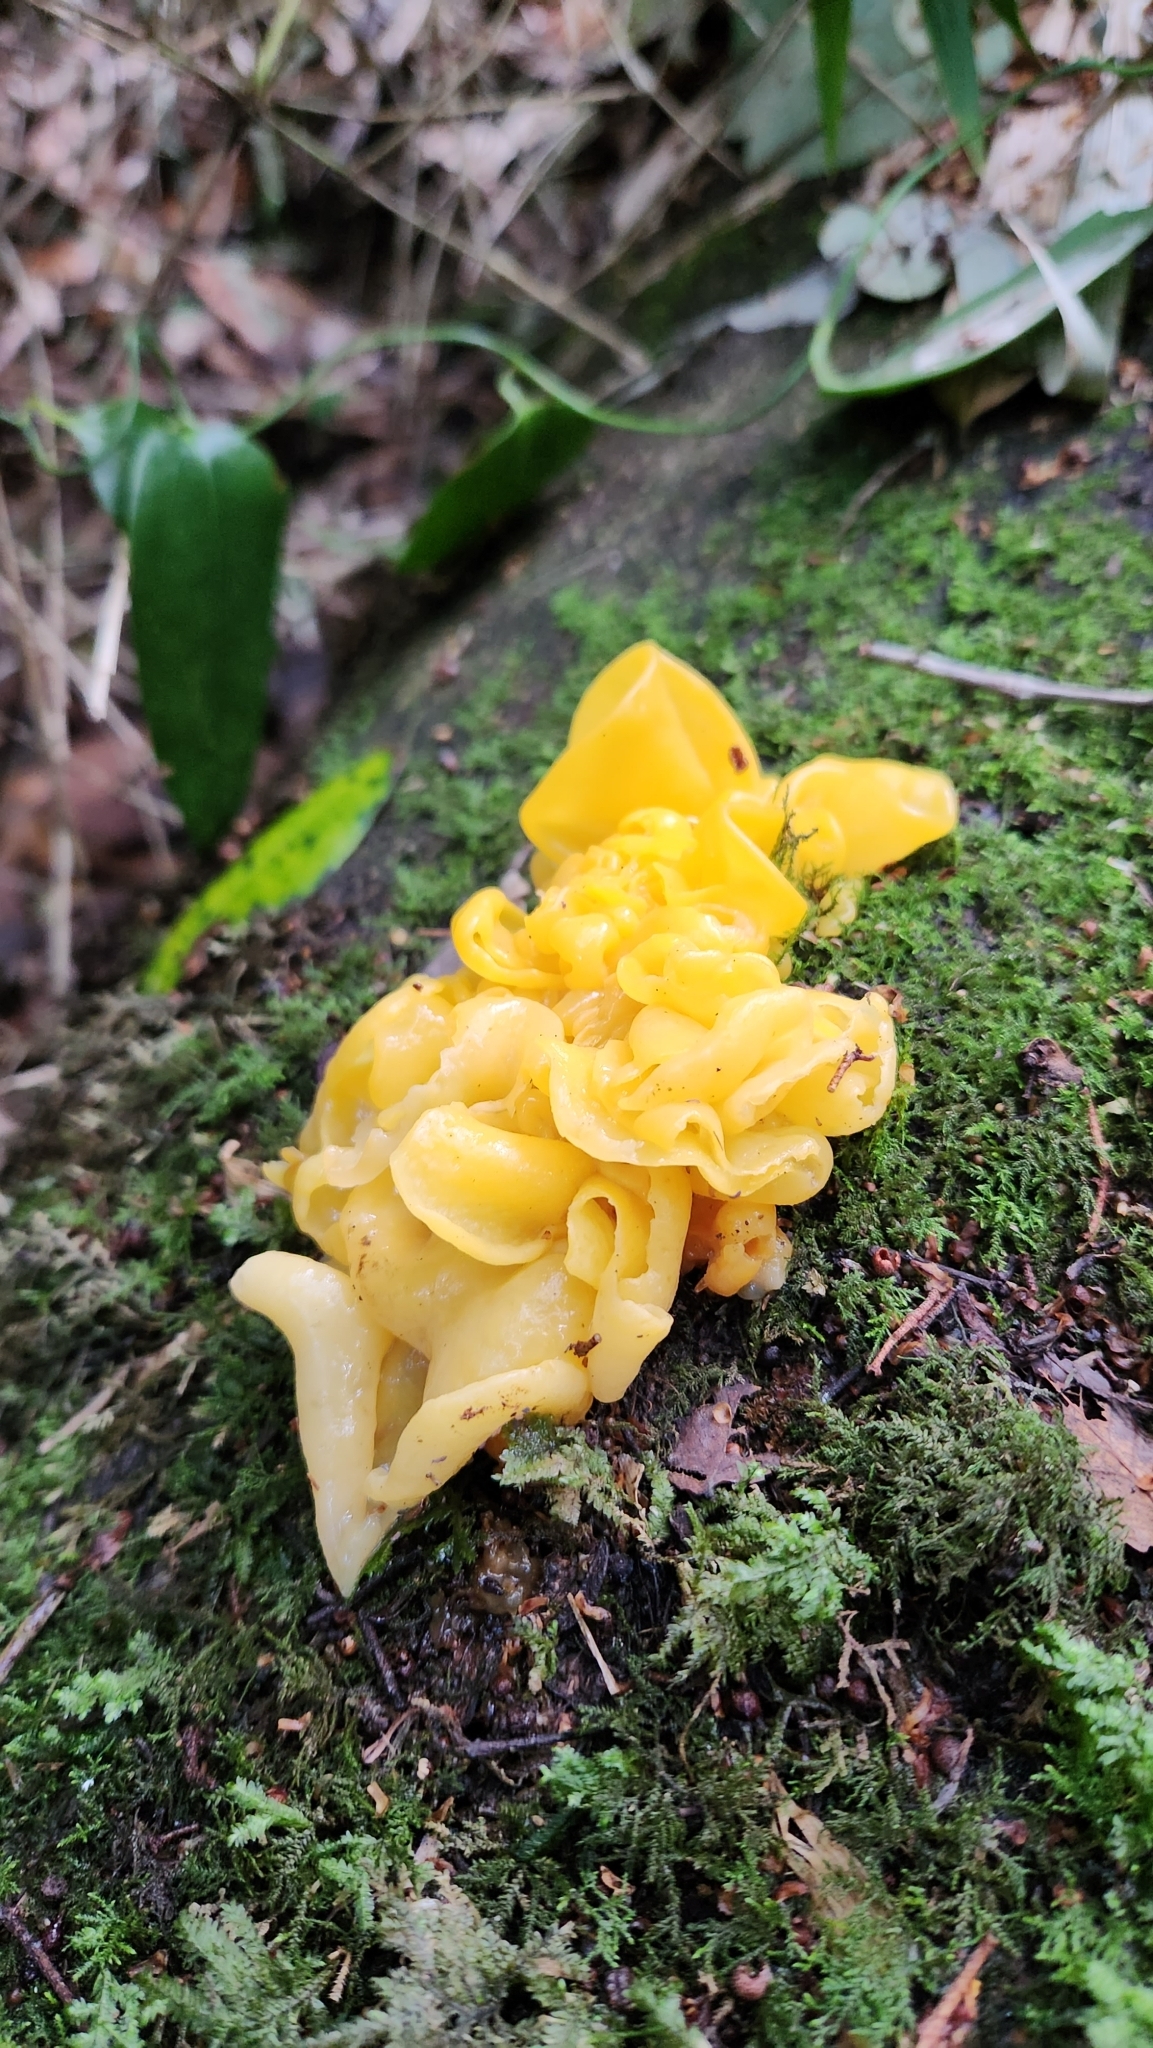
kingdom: Fungi
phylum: Basidiomycota
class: Tremellomycetes
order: Tremellales
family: Tremellaceae
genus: Tremella
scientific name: Tremella mesenterica
